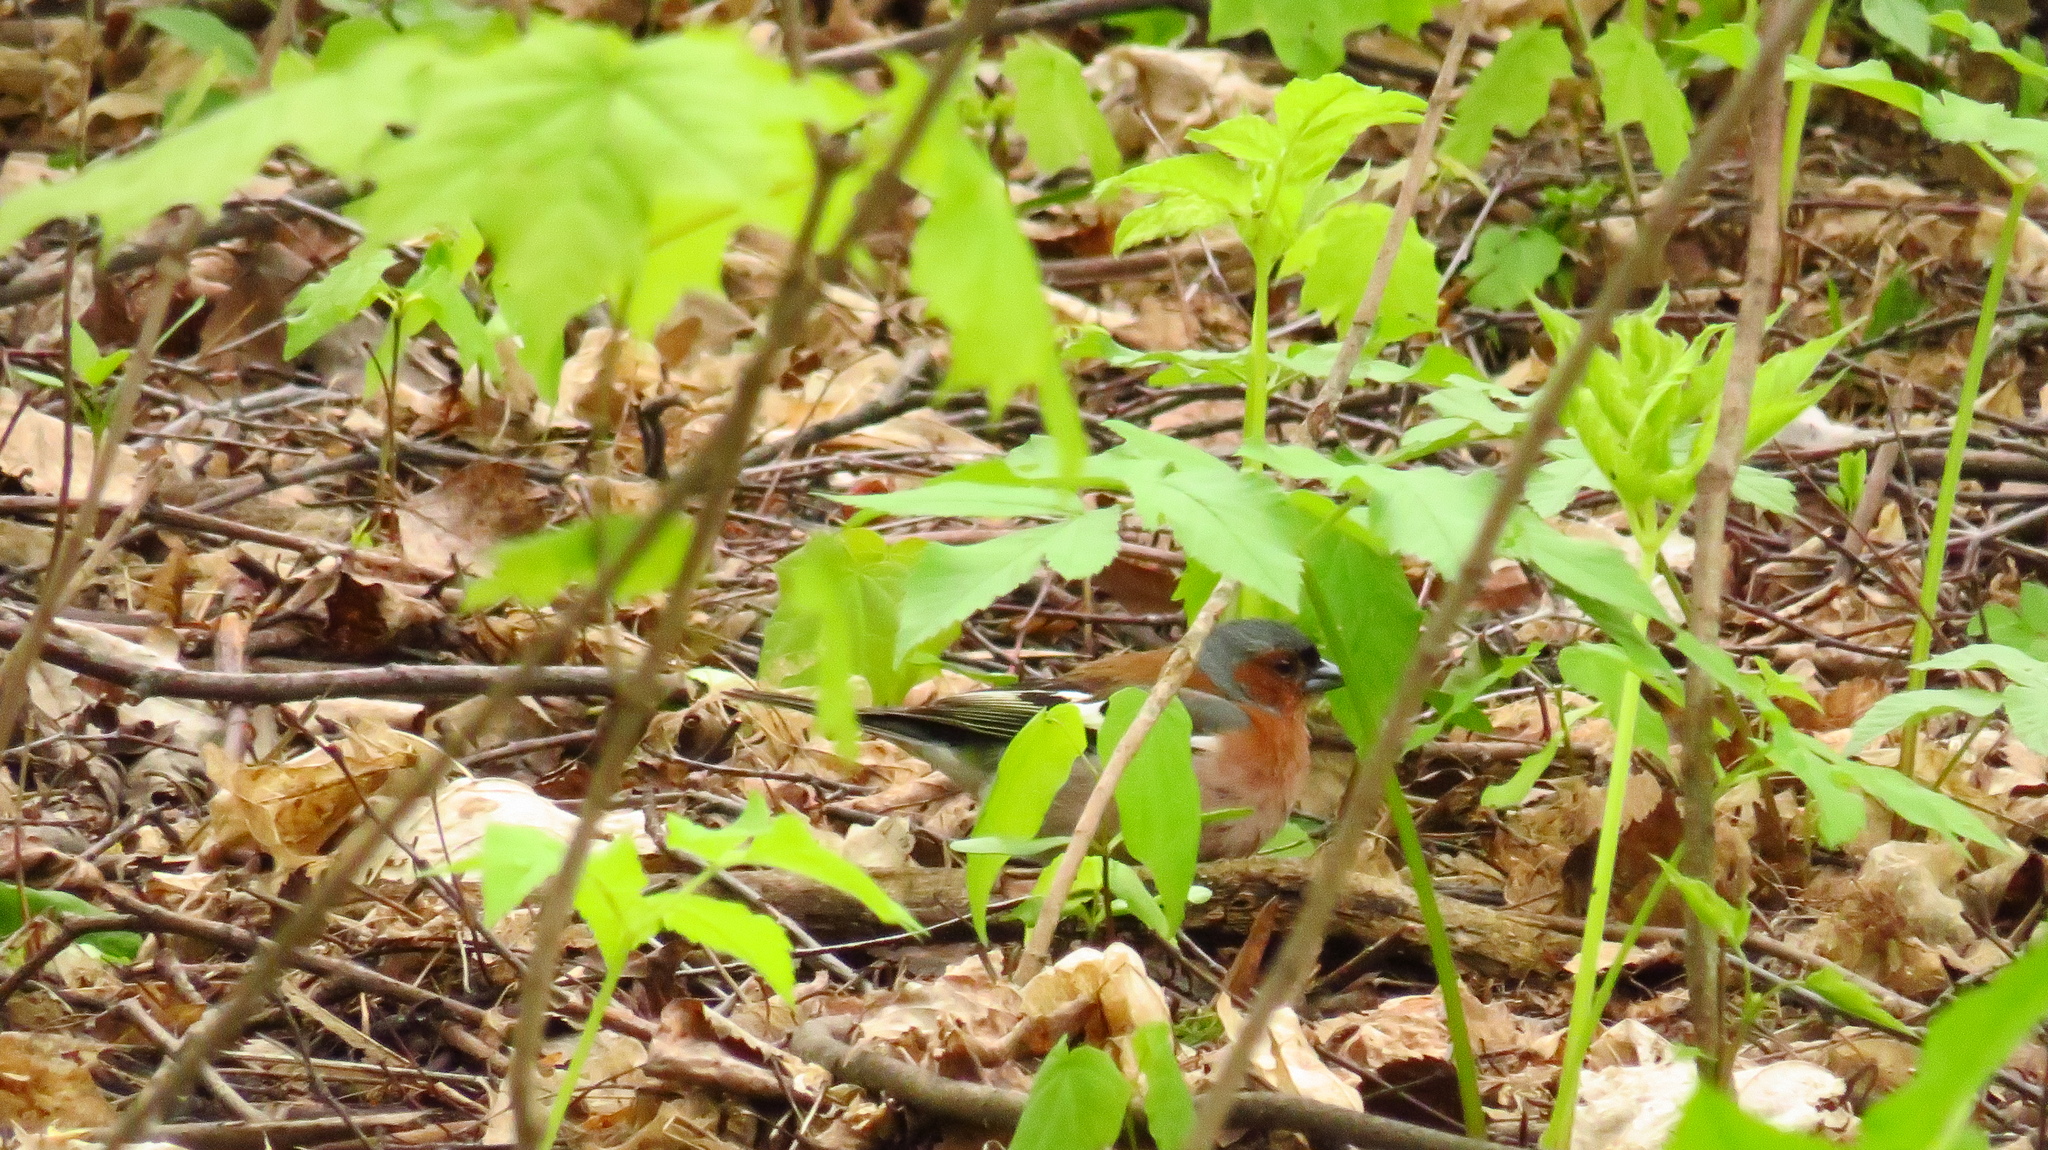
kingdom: Animalia
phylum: Chordata
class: Aves
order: Passeriformes
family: Fringillidae
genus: Fringilla
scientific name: Fringilla coelebs
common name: Common chaffinch
